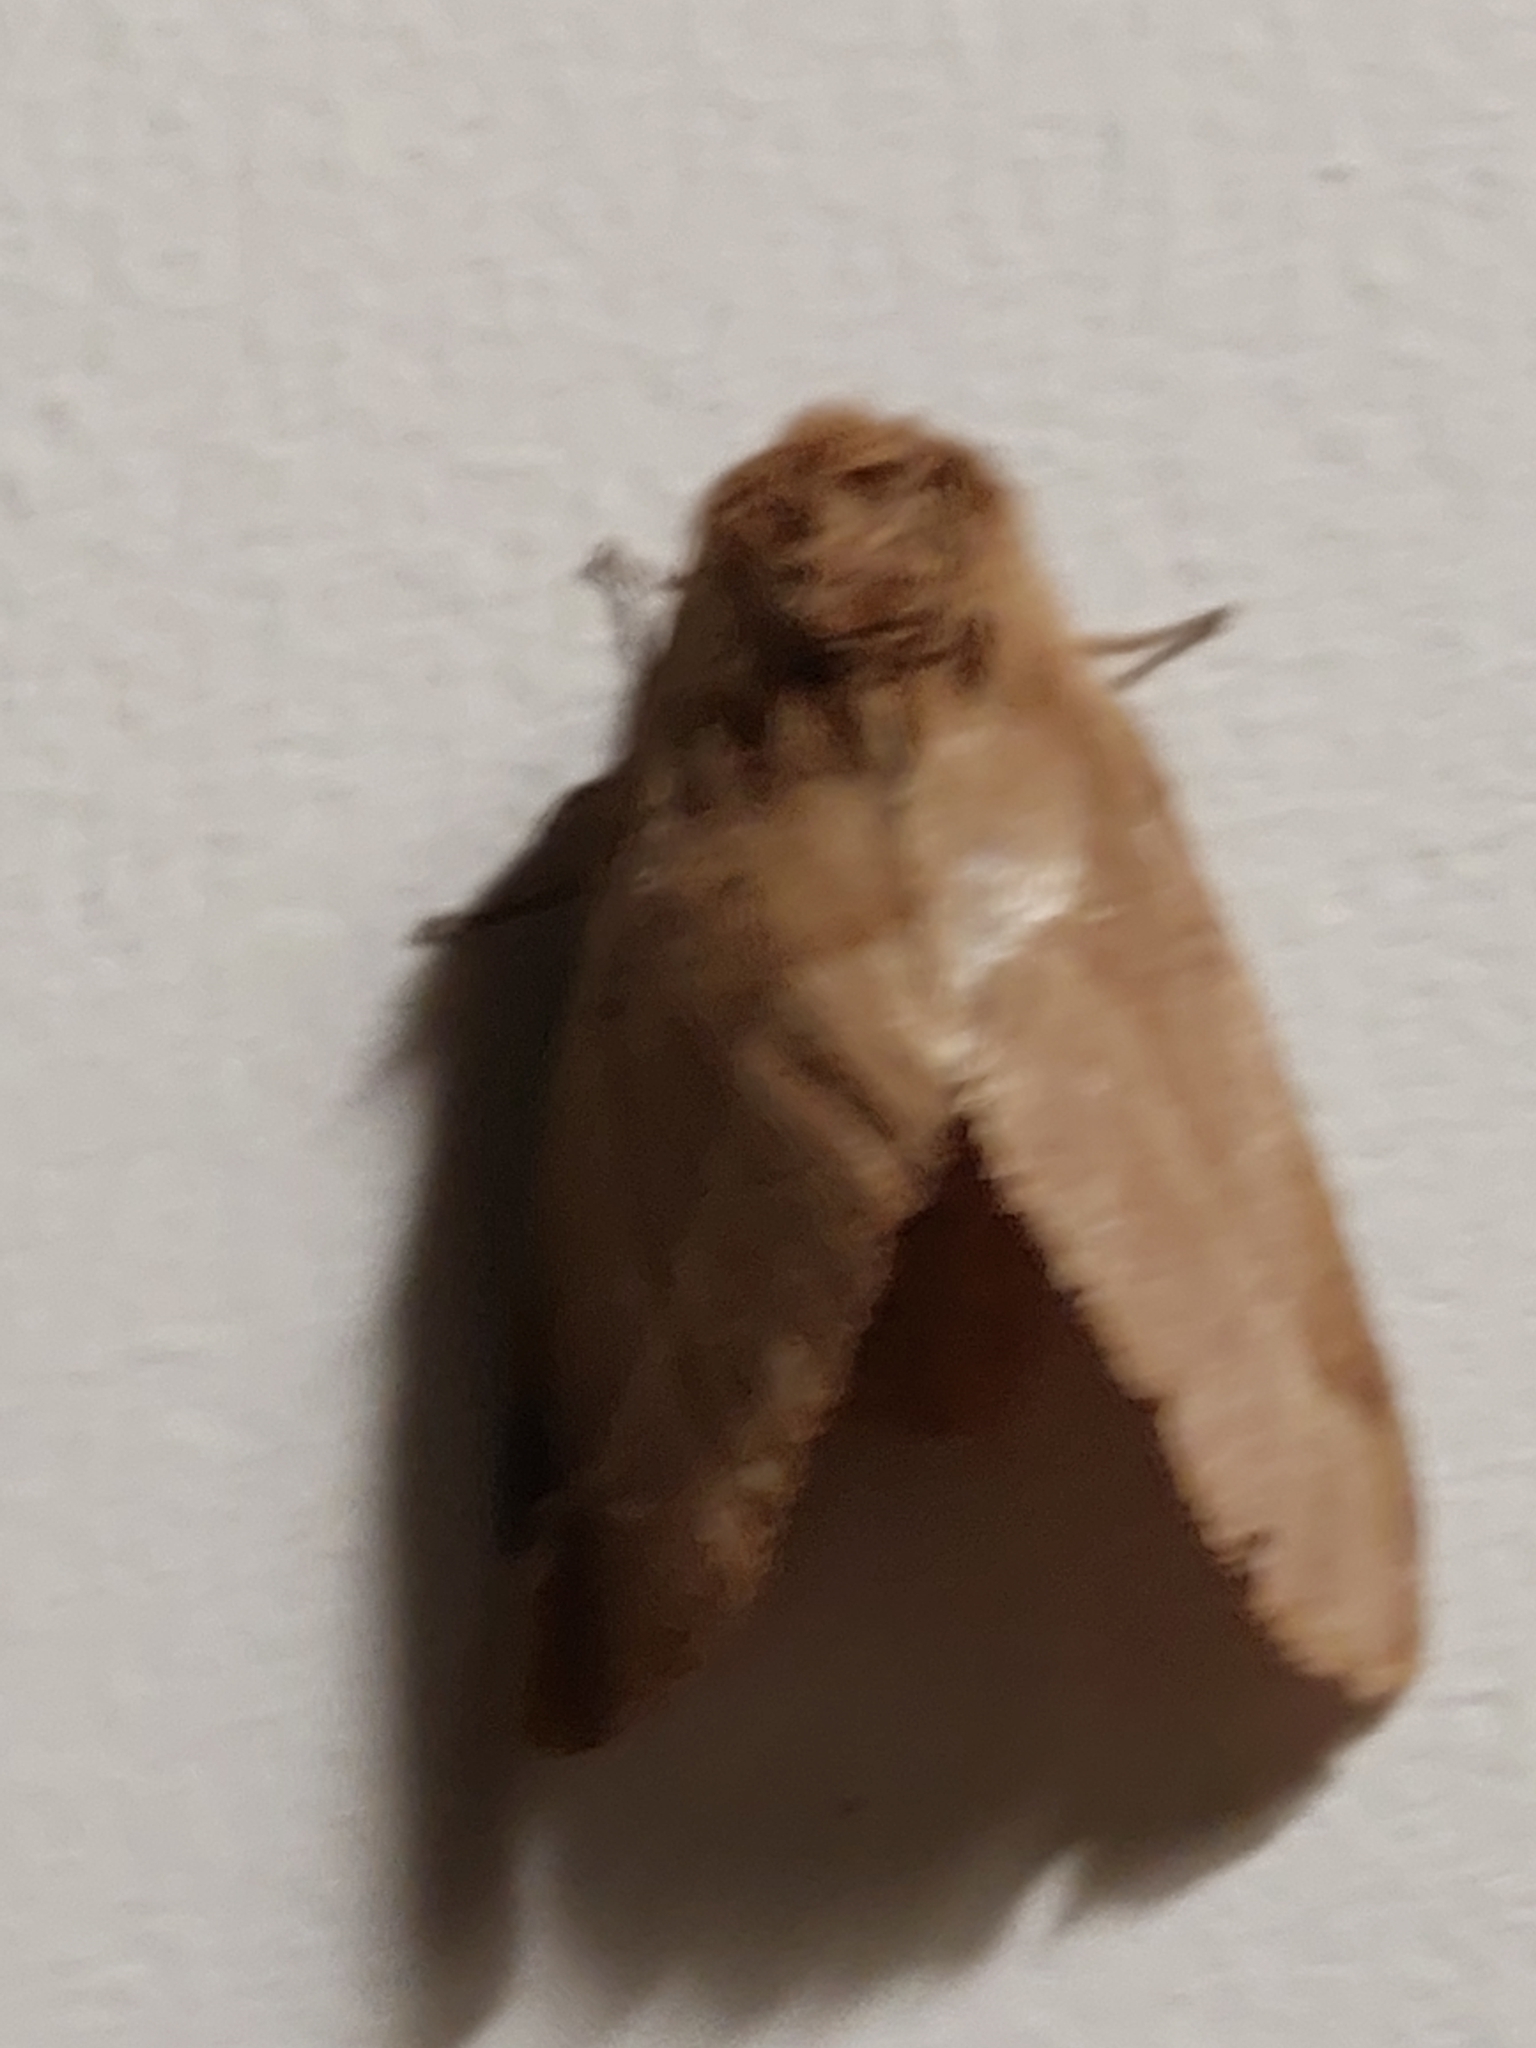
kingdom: Animalia
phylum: Arthropoda
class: Insecta
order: Lepidoptera
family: Lasiocampidae
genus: Lasiocampa
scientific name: Lasiocampa trifolii
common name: Grass eggar
